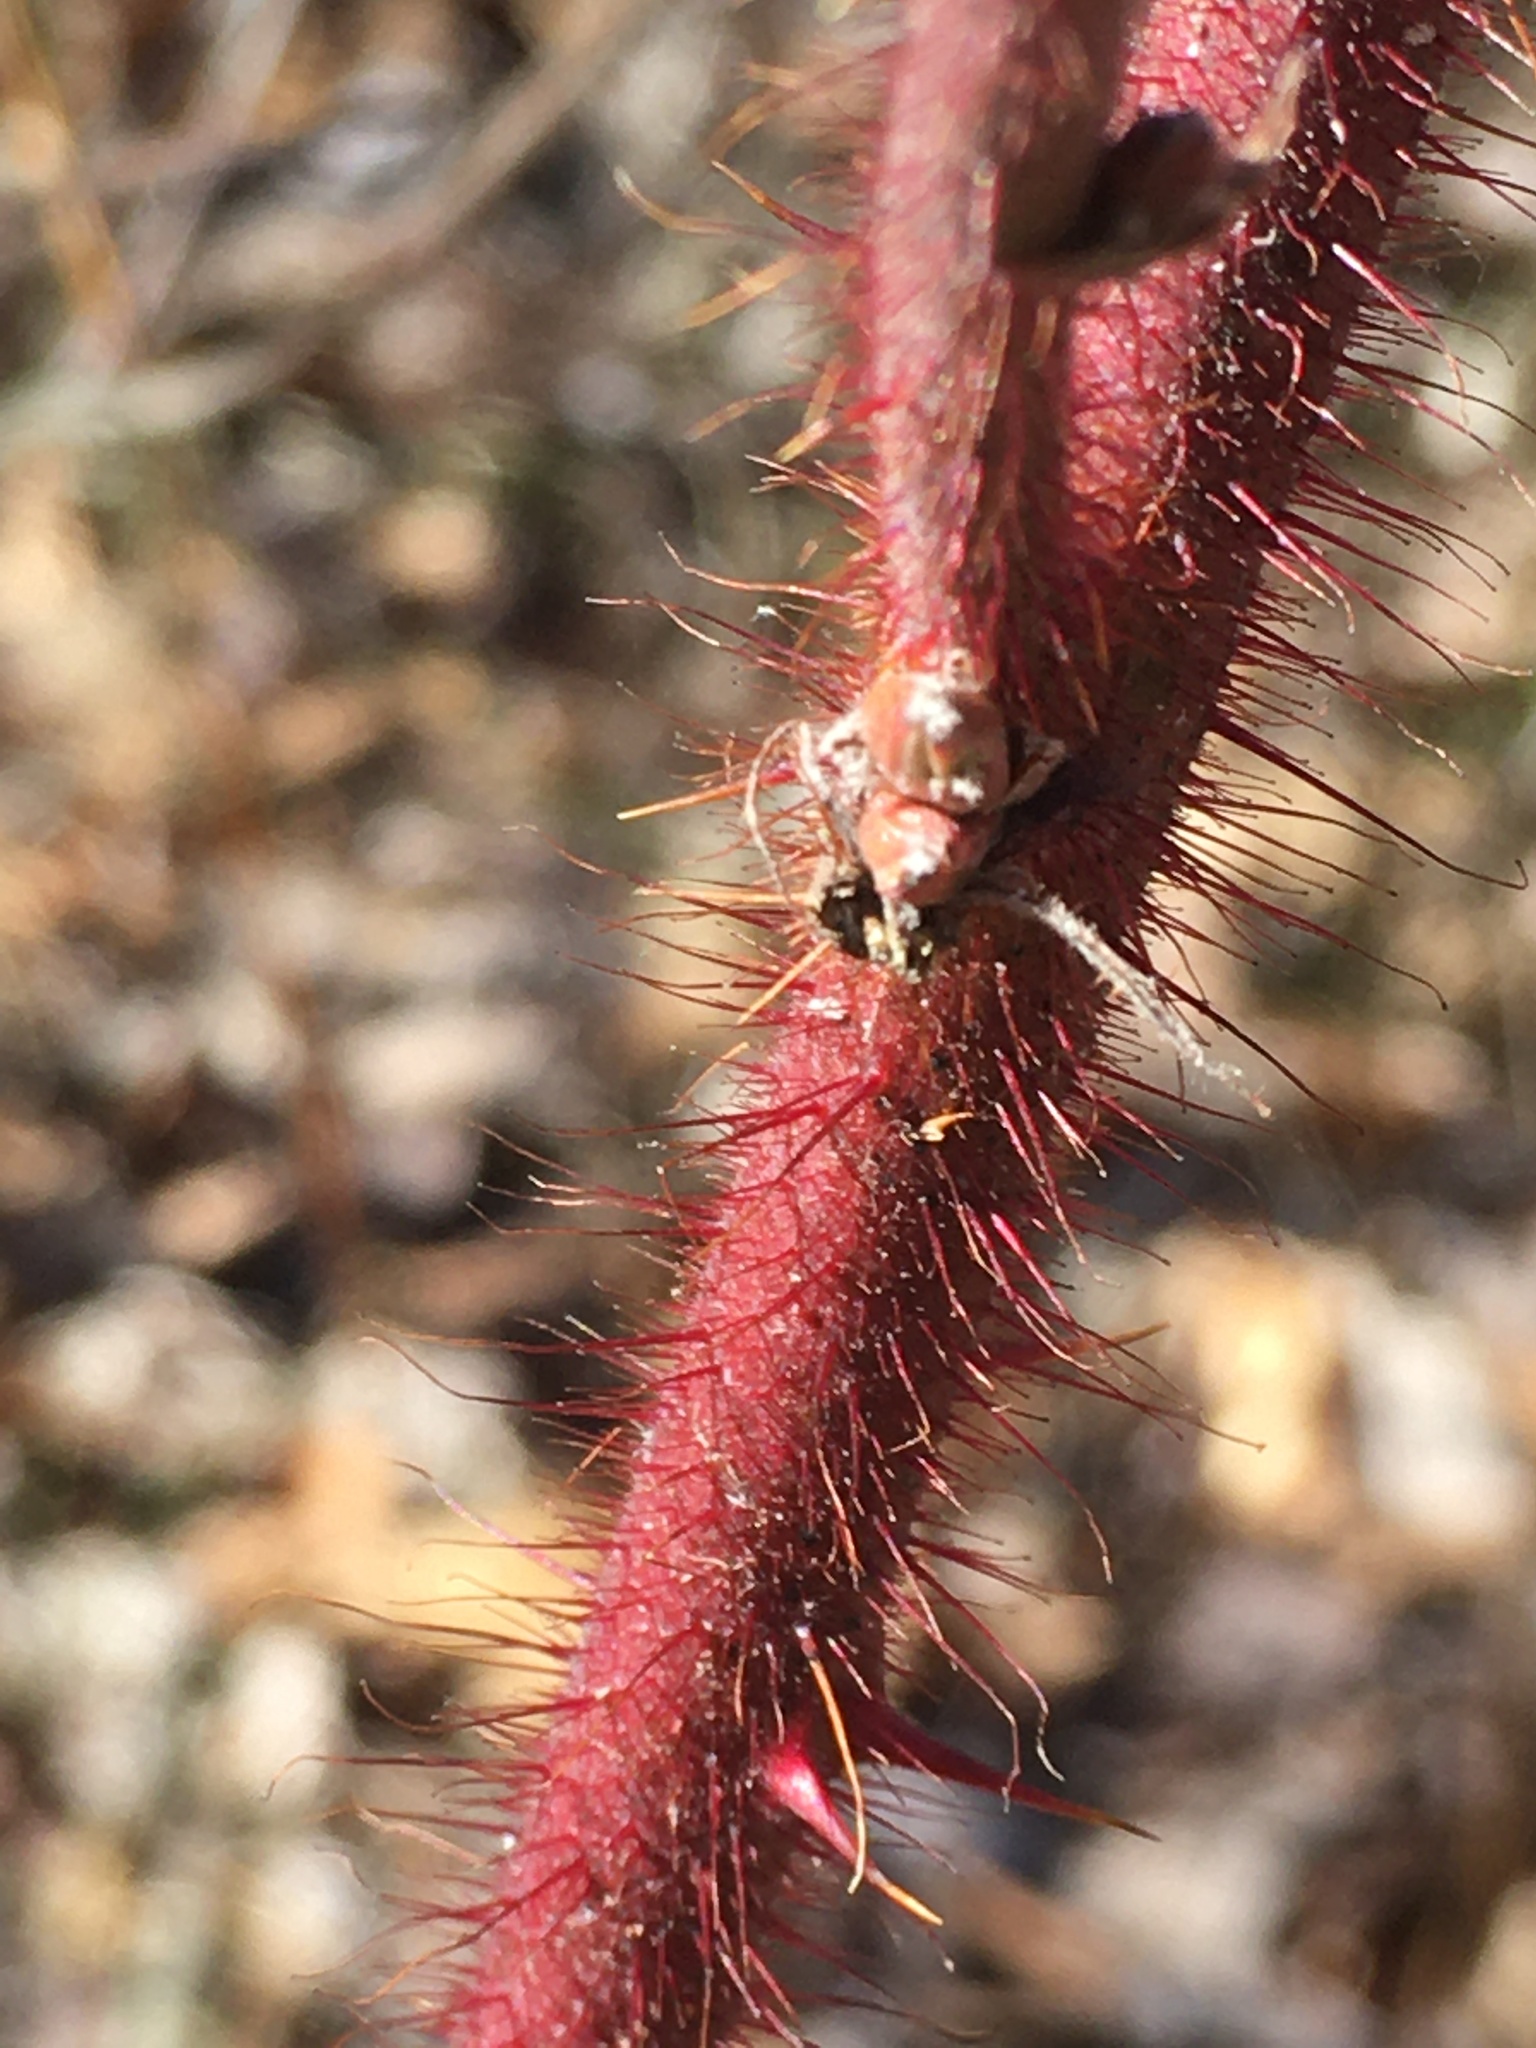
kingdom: Plantae
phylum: Tracheophyta
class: Magnoliopsida
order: Rosales
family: Rosaceae
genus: Rubus
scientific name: Rubus phoenicolasius
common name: Japanese wineberry
